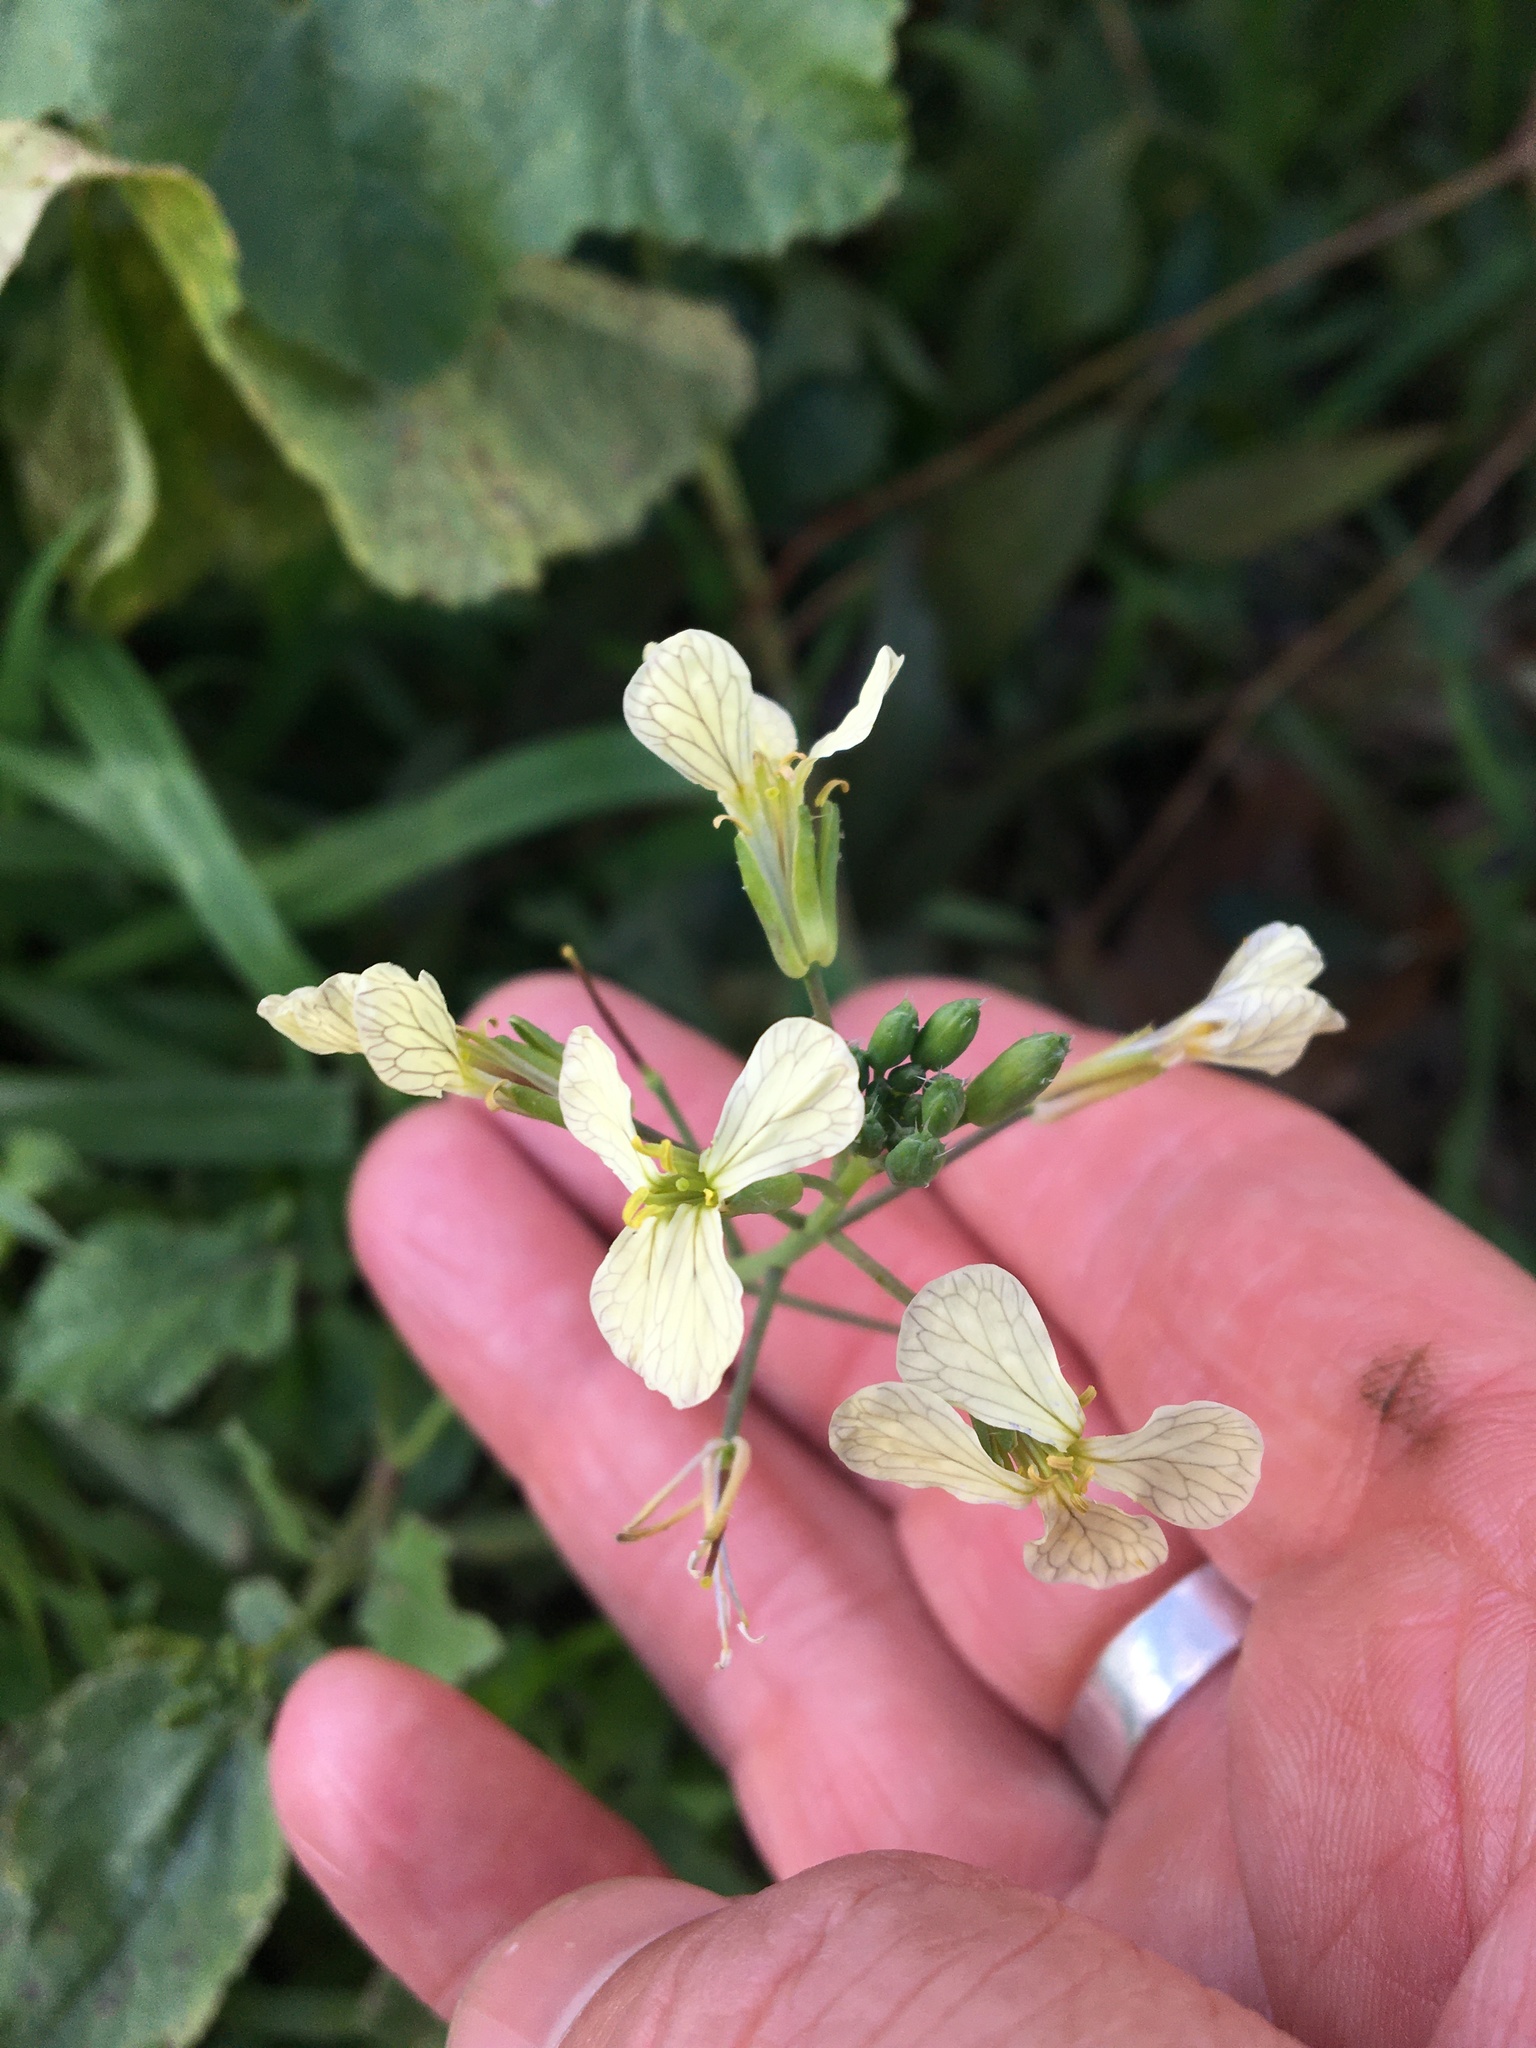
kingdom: Plantae
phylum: Tracheophyta
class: Magnoliopsida
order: Brassicales
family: Brassicaceae
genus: Raphanus
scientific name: Raphanus raphanistrum
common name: Wild radish
